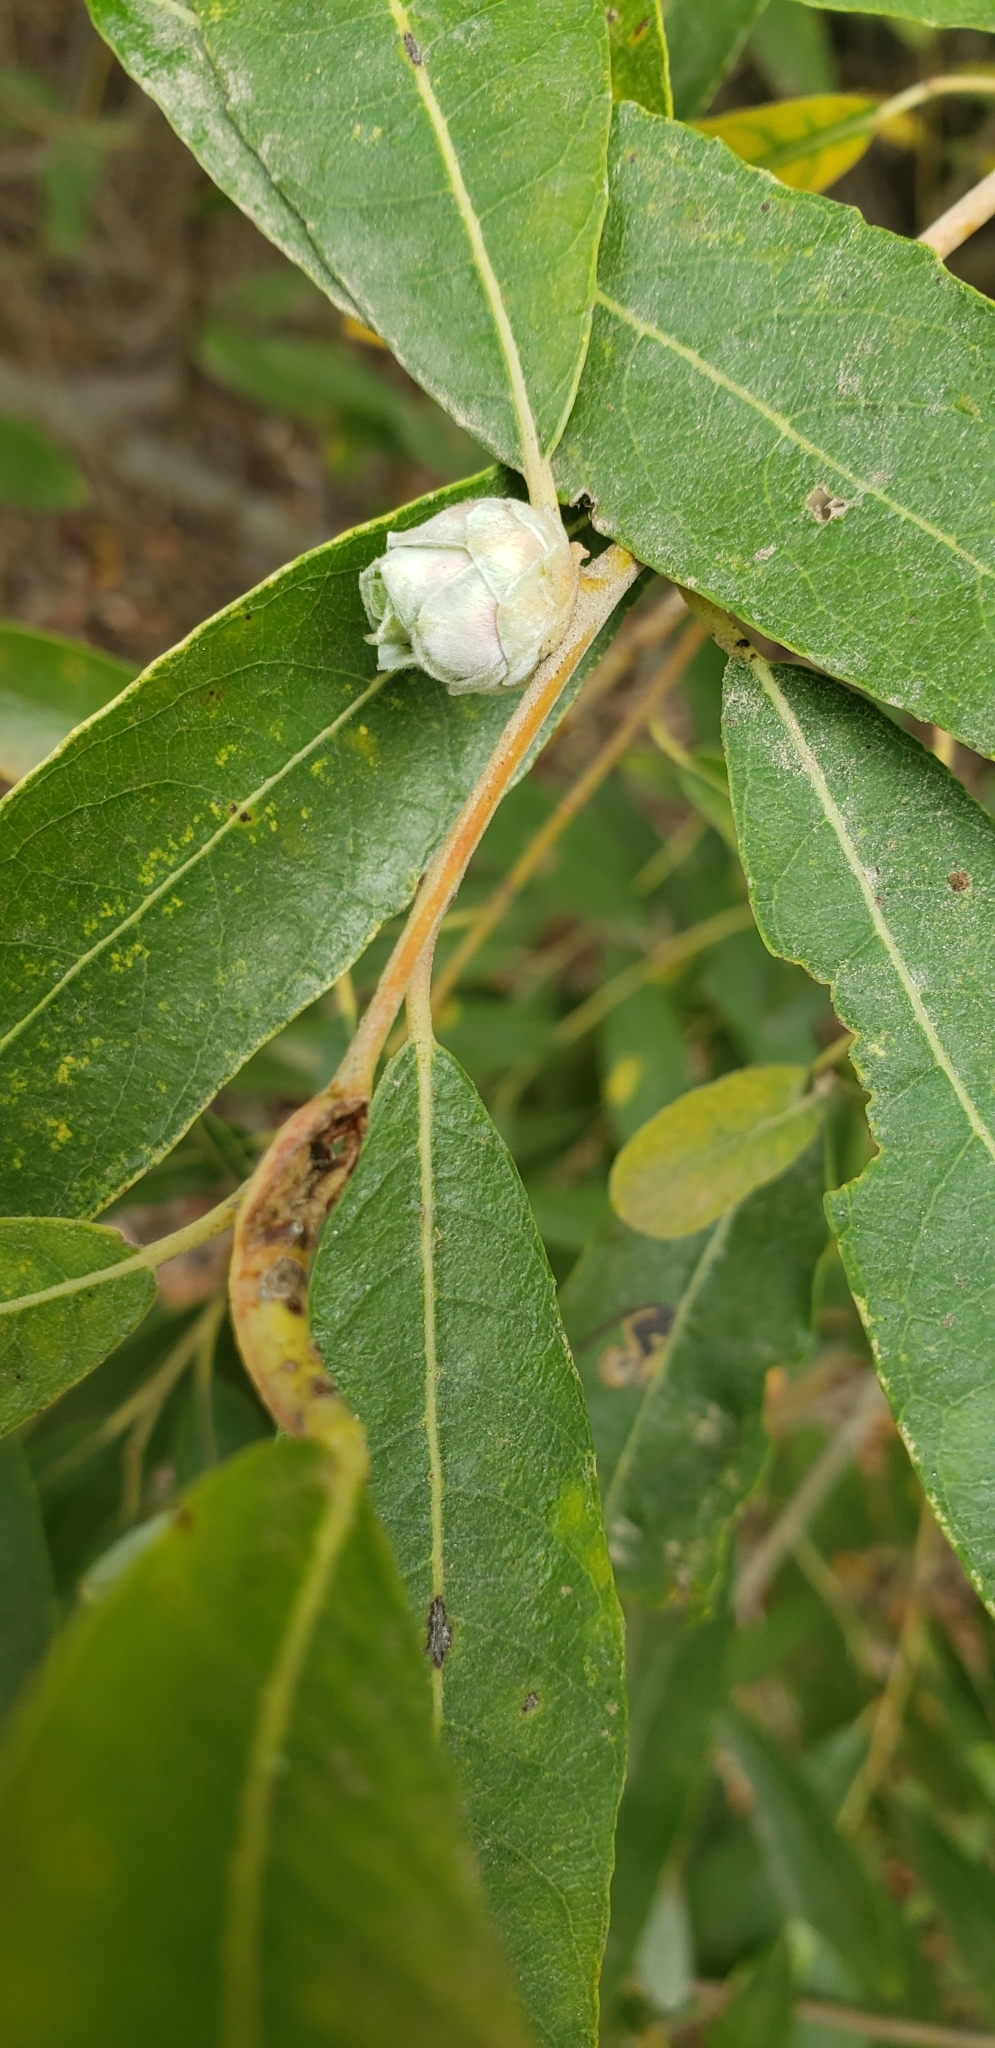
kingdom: Animalia
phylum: Arthropoda
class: Insecta
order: Diptera
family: Cecidomyiidae
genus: Rabdophaga
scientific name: Rabdophaga strobiloides
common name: Willow pinecone gall midge
